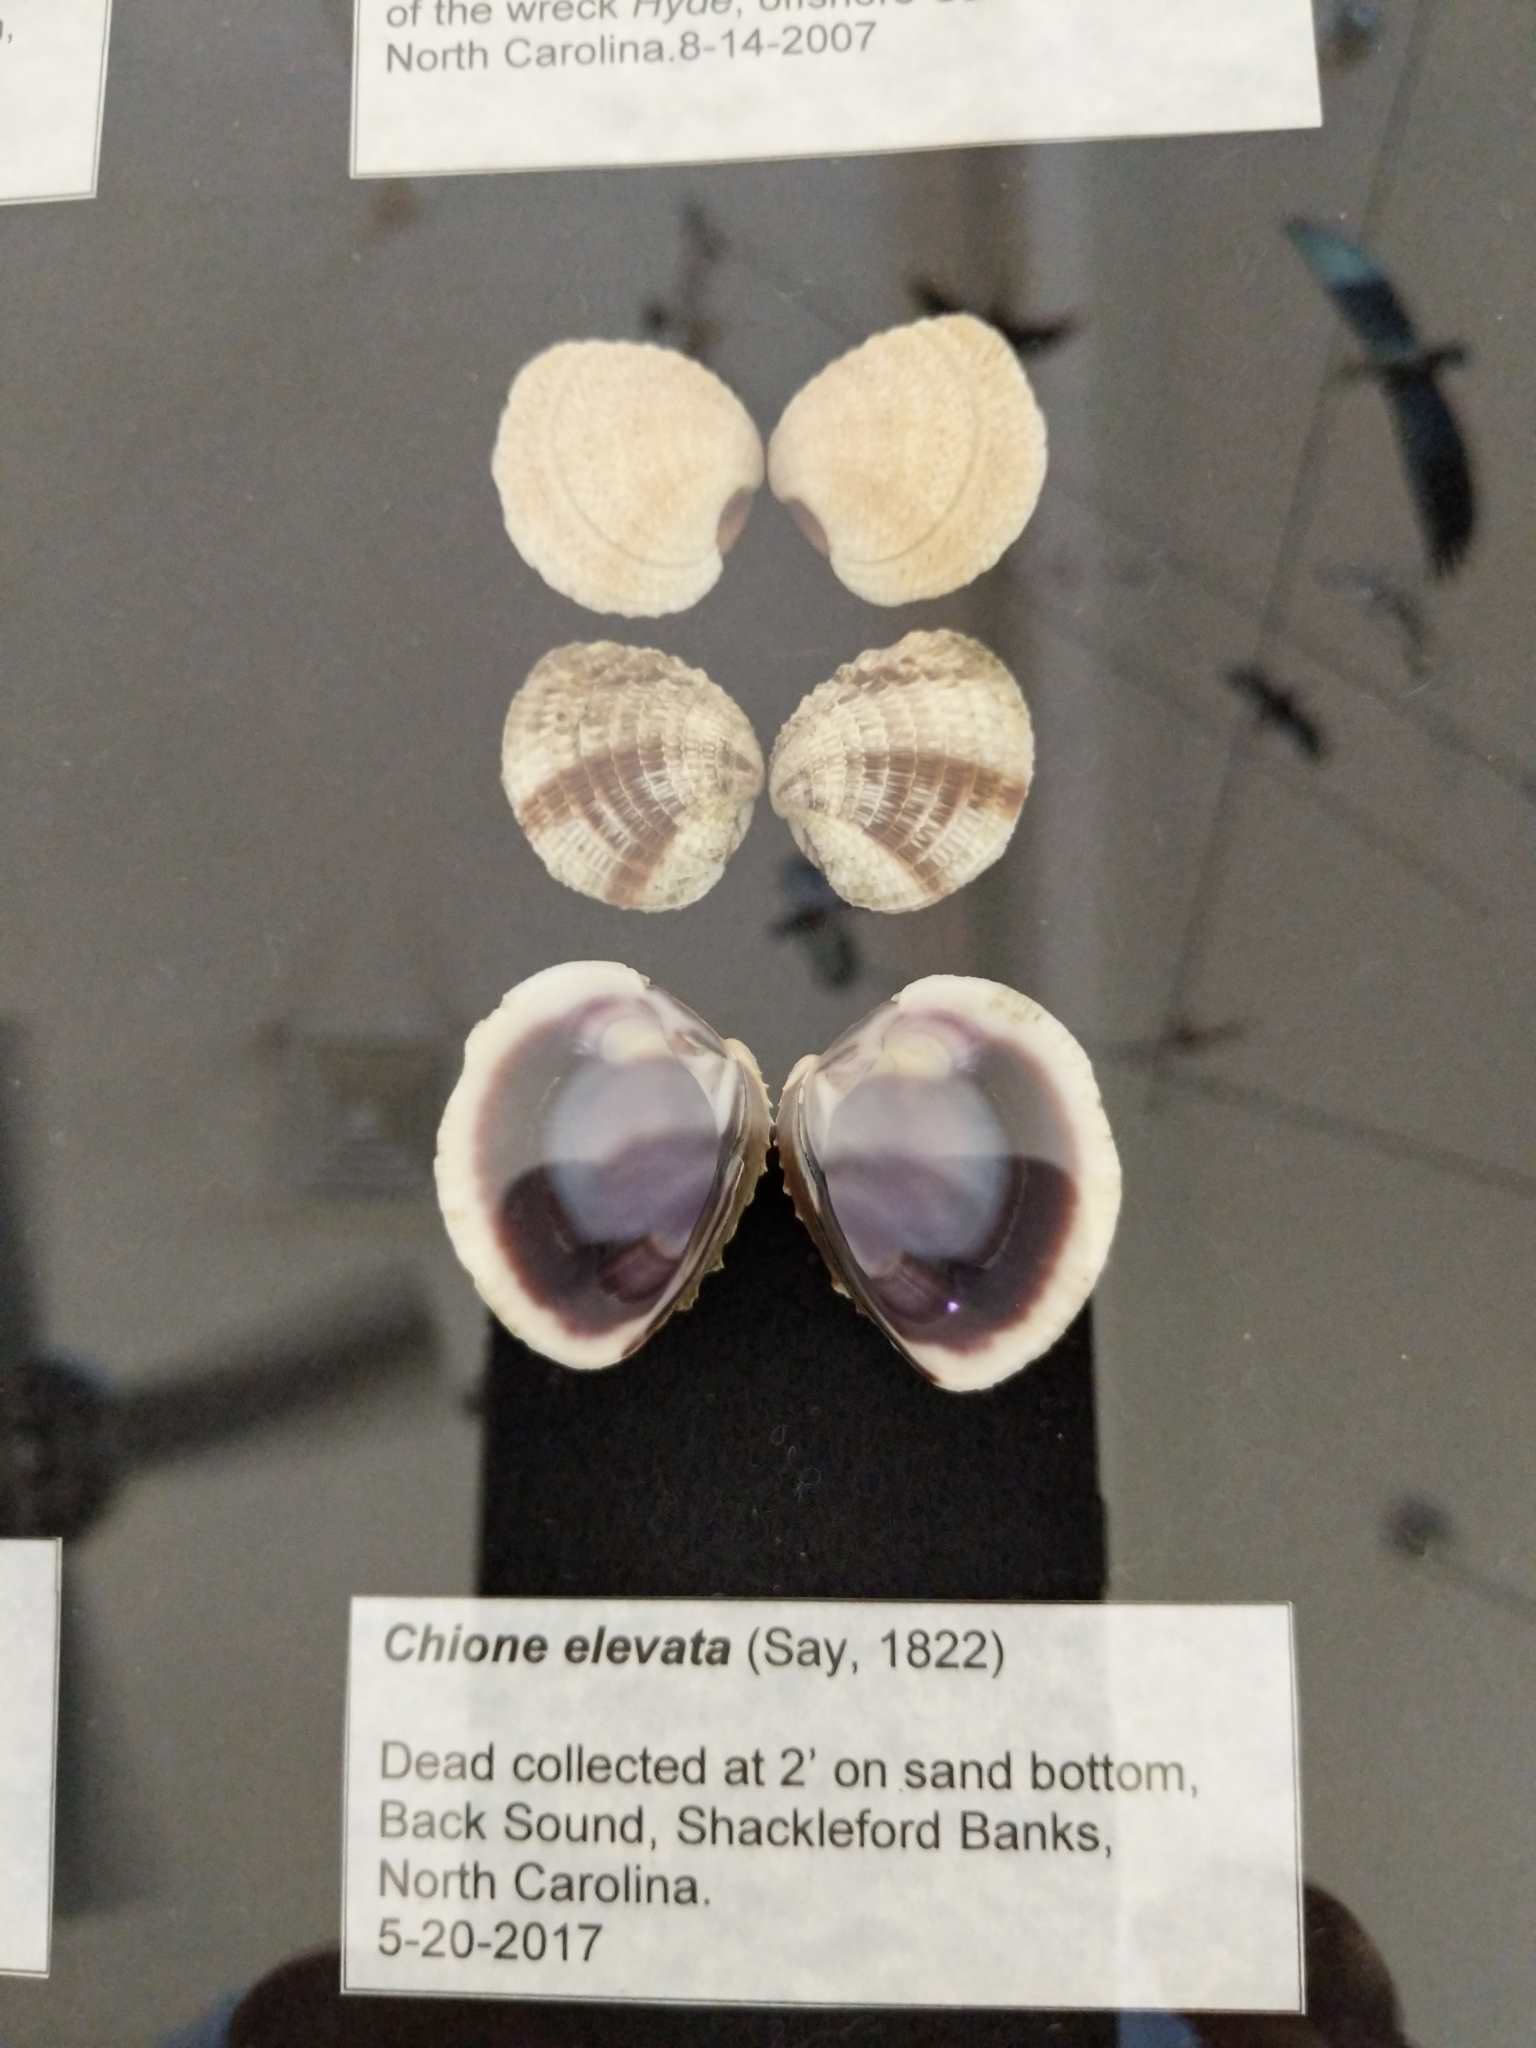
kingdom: Animalia
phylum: Mollusca
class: Bivalvia
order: Venerida
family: Veneridae
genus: Chione
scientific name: Chione elevata
